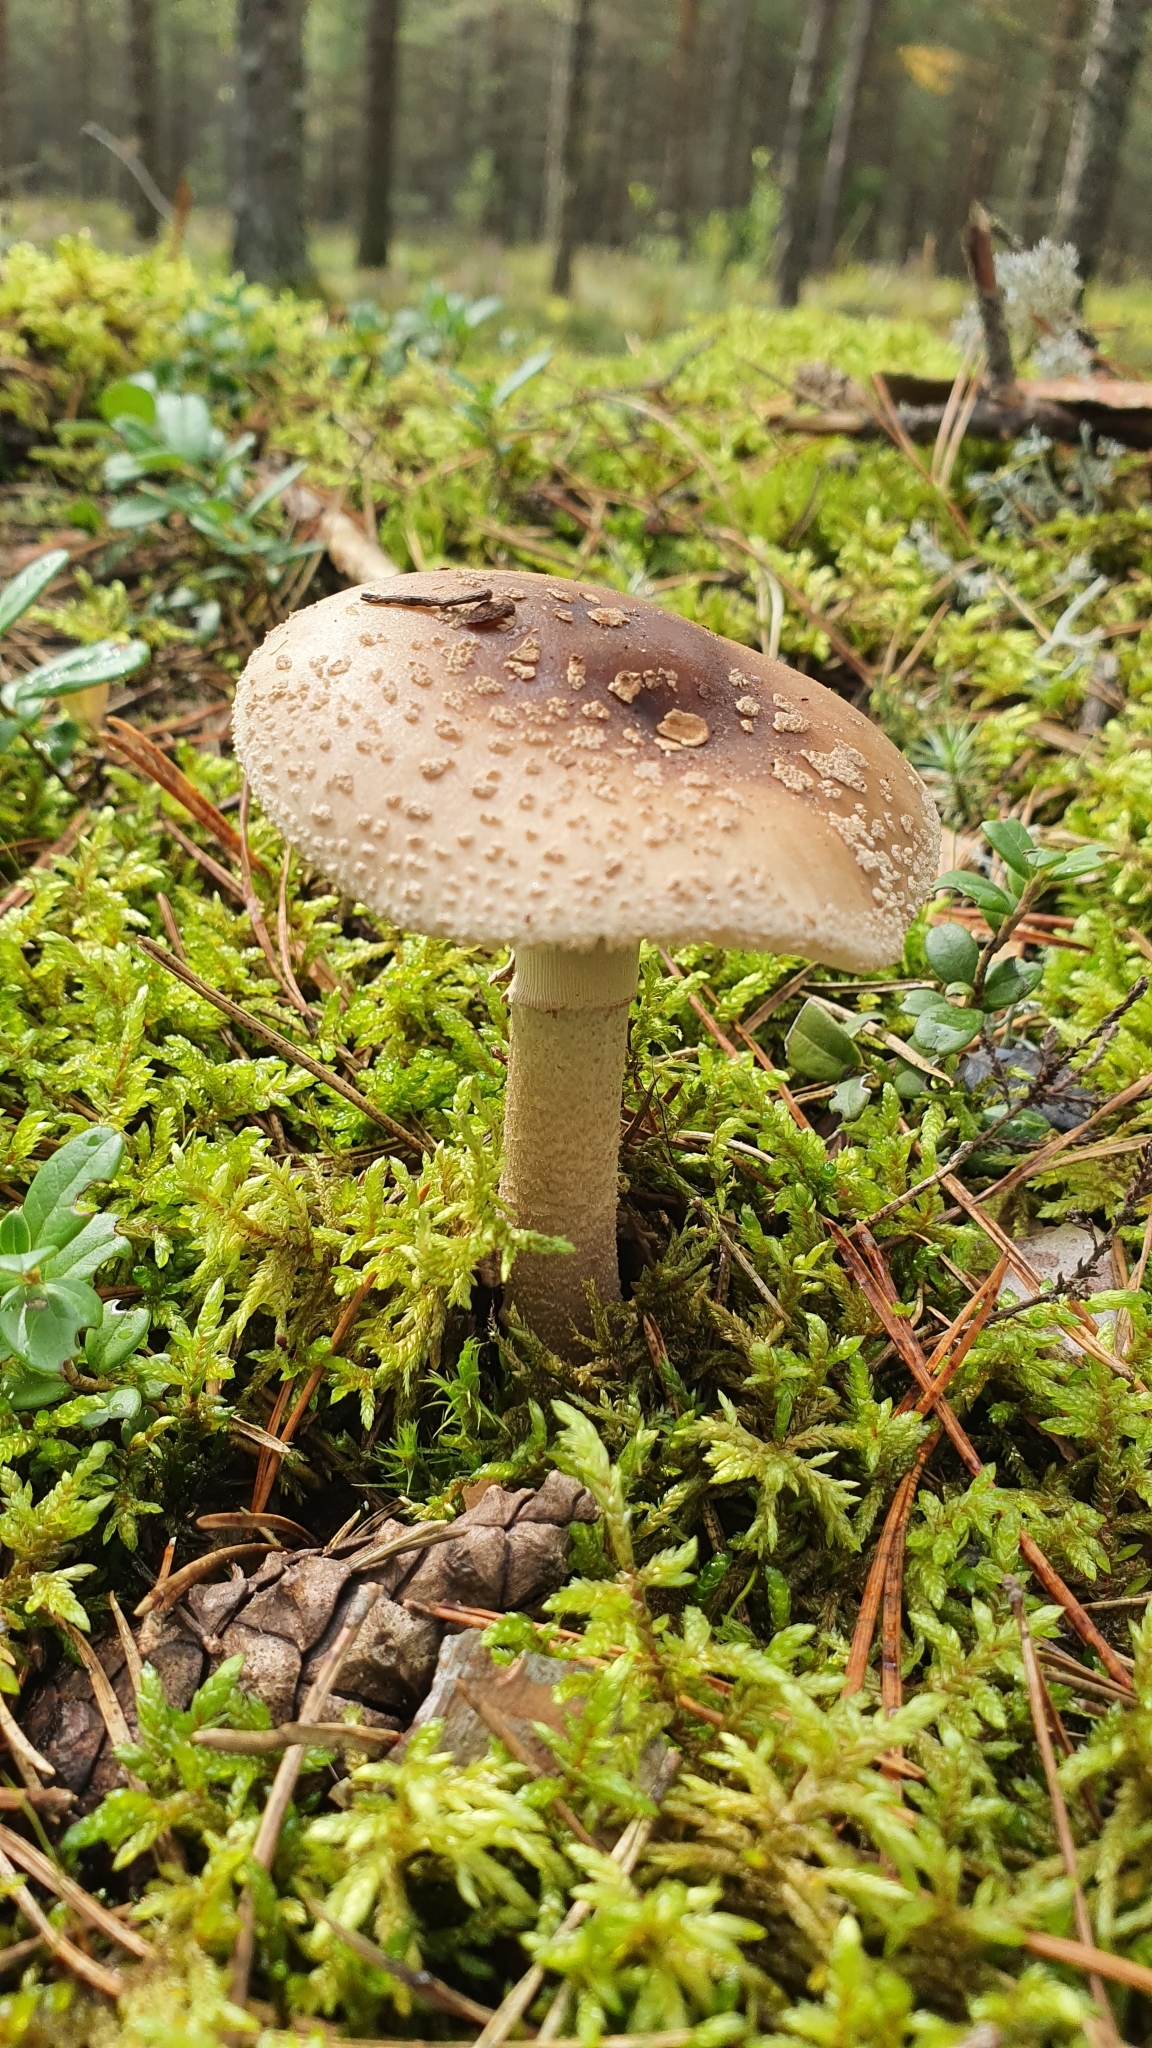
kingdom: Fungi
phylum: Basidiomycota
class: Agaricomycetes
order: Agaricales
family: Amanitaceae
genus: Amanita
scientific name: Amanita rubescens
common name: Blusher
